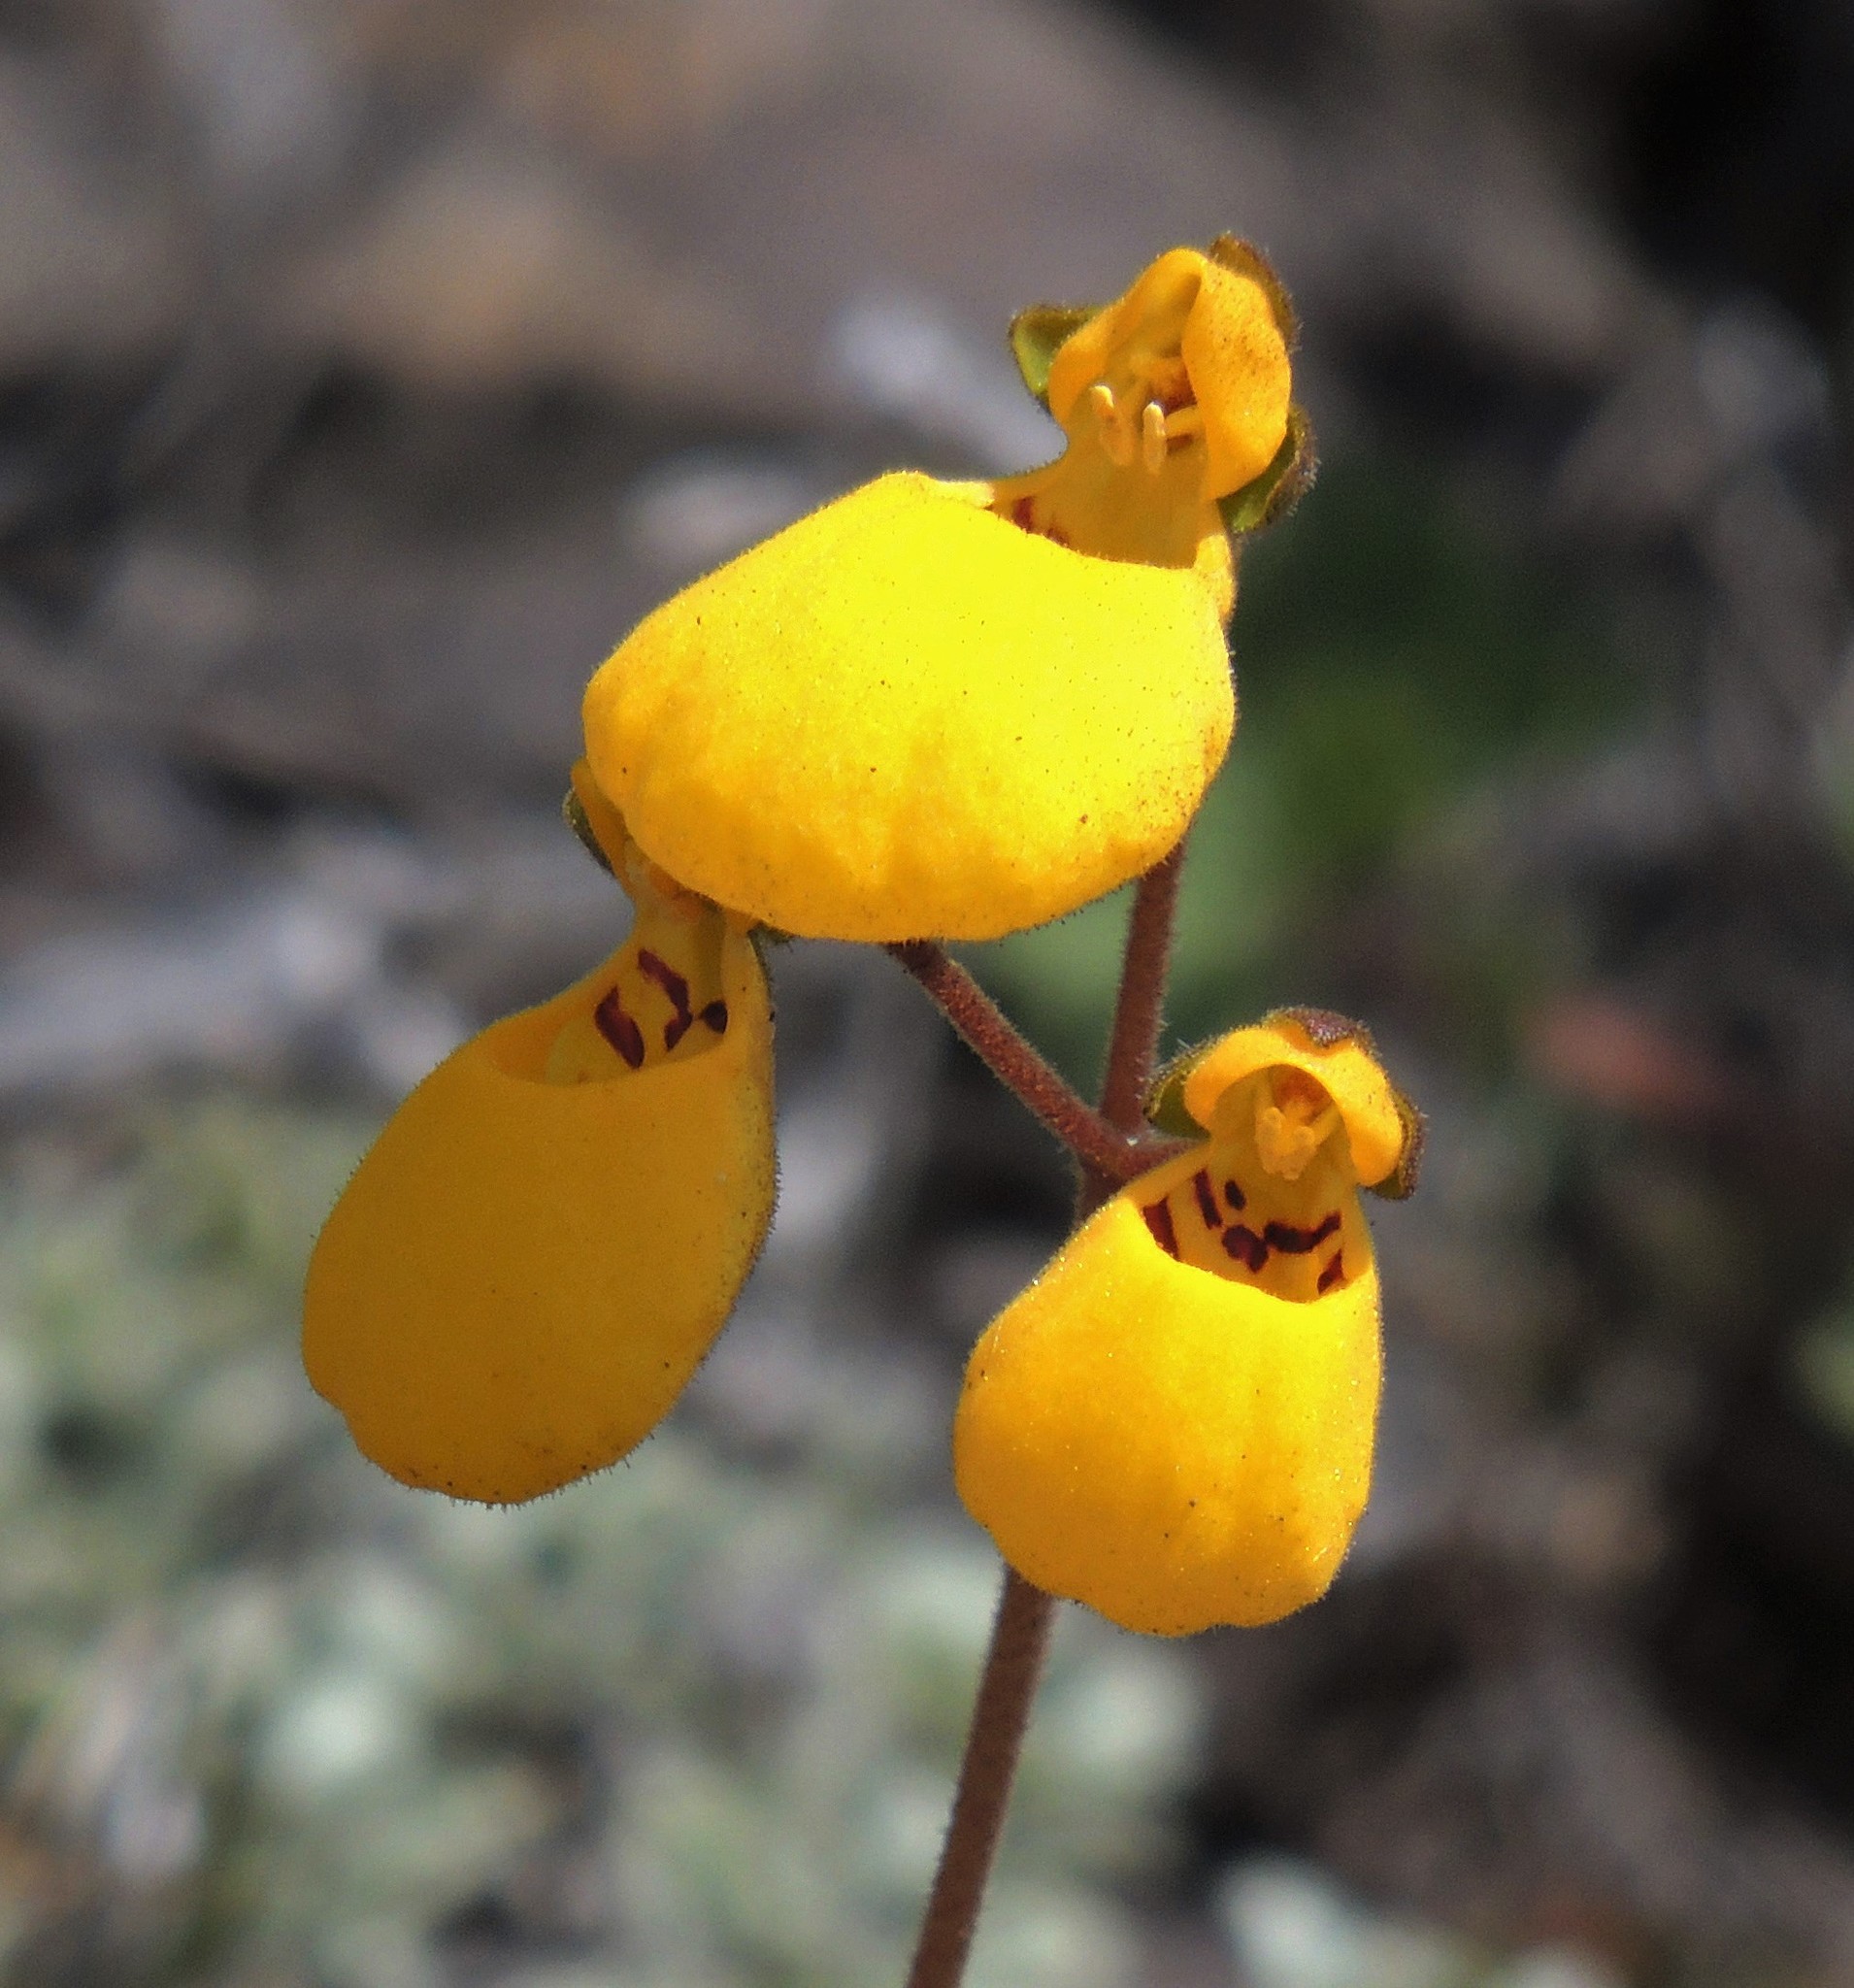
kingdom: Plantae
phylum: Tracheophyta
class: Magnoliopsida
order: Lamiales
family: Calceolariaceae
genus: Calceolaria
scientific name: Calceolaria biflora
